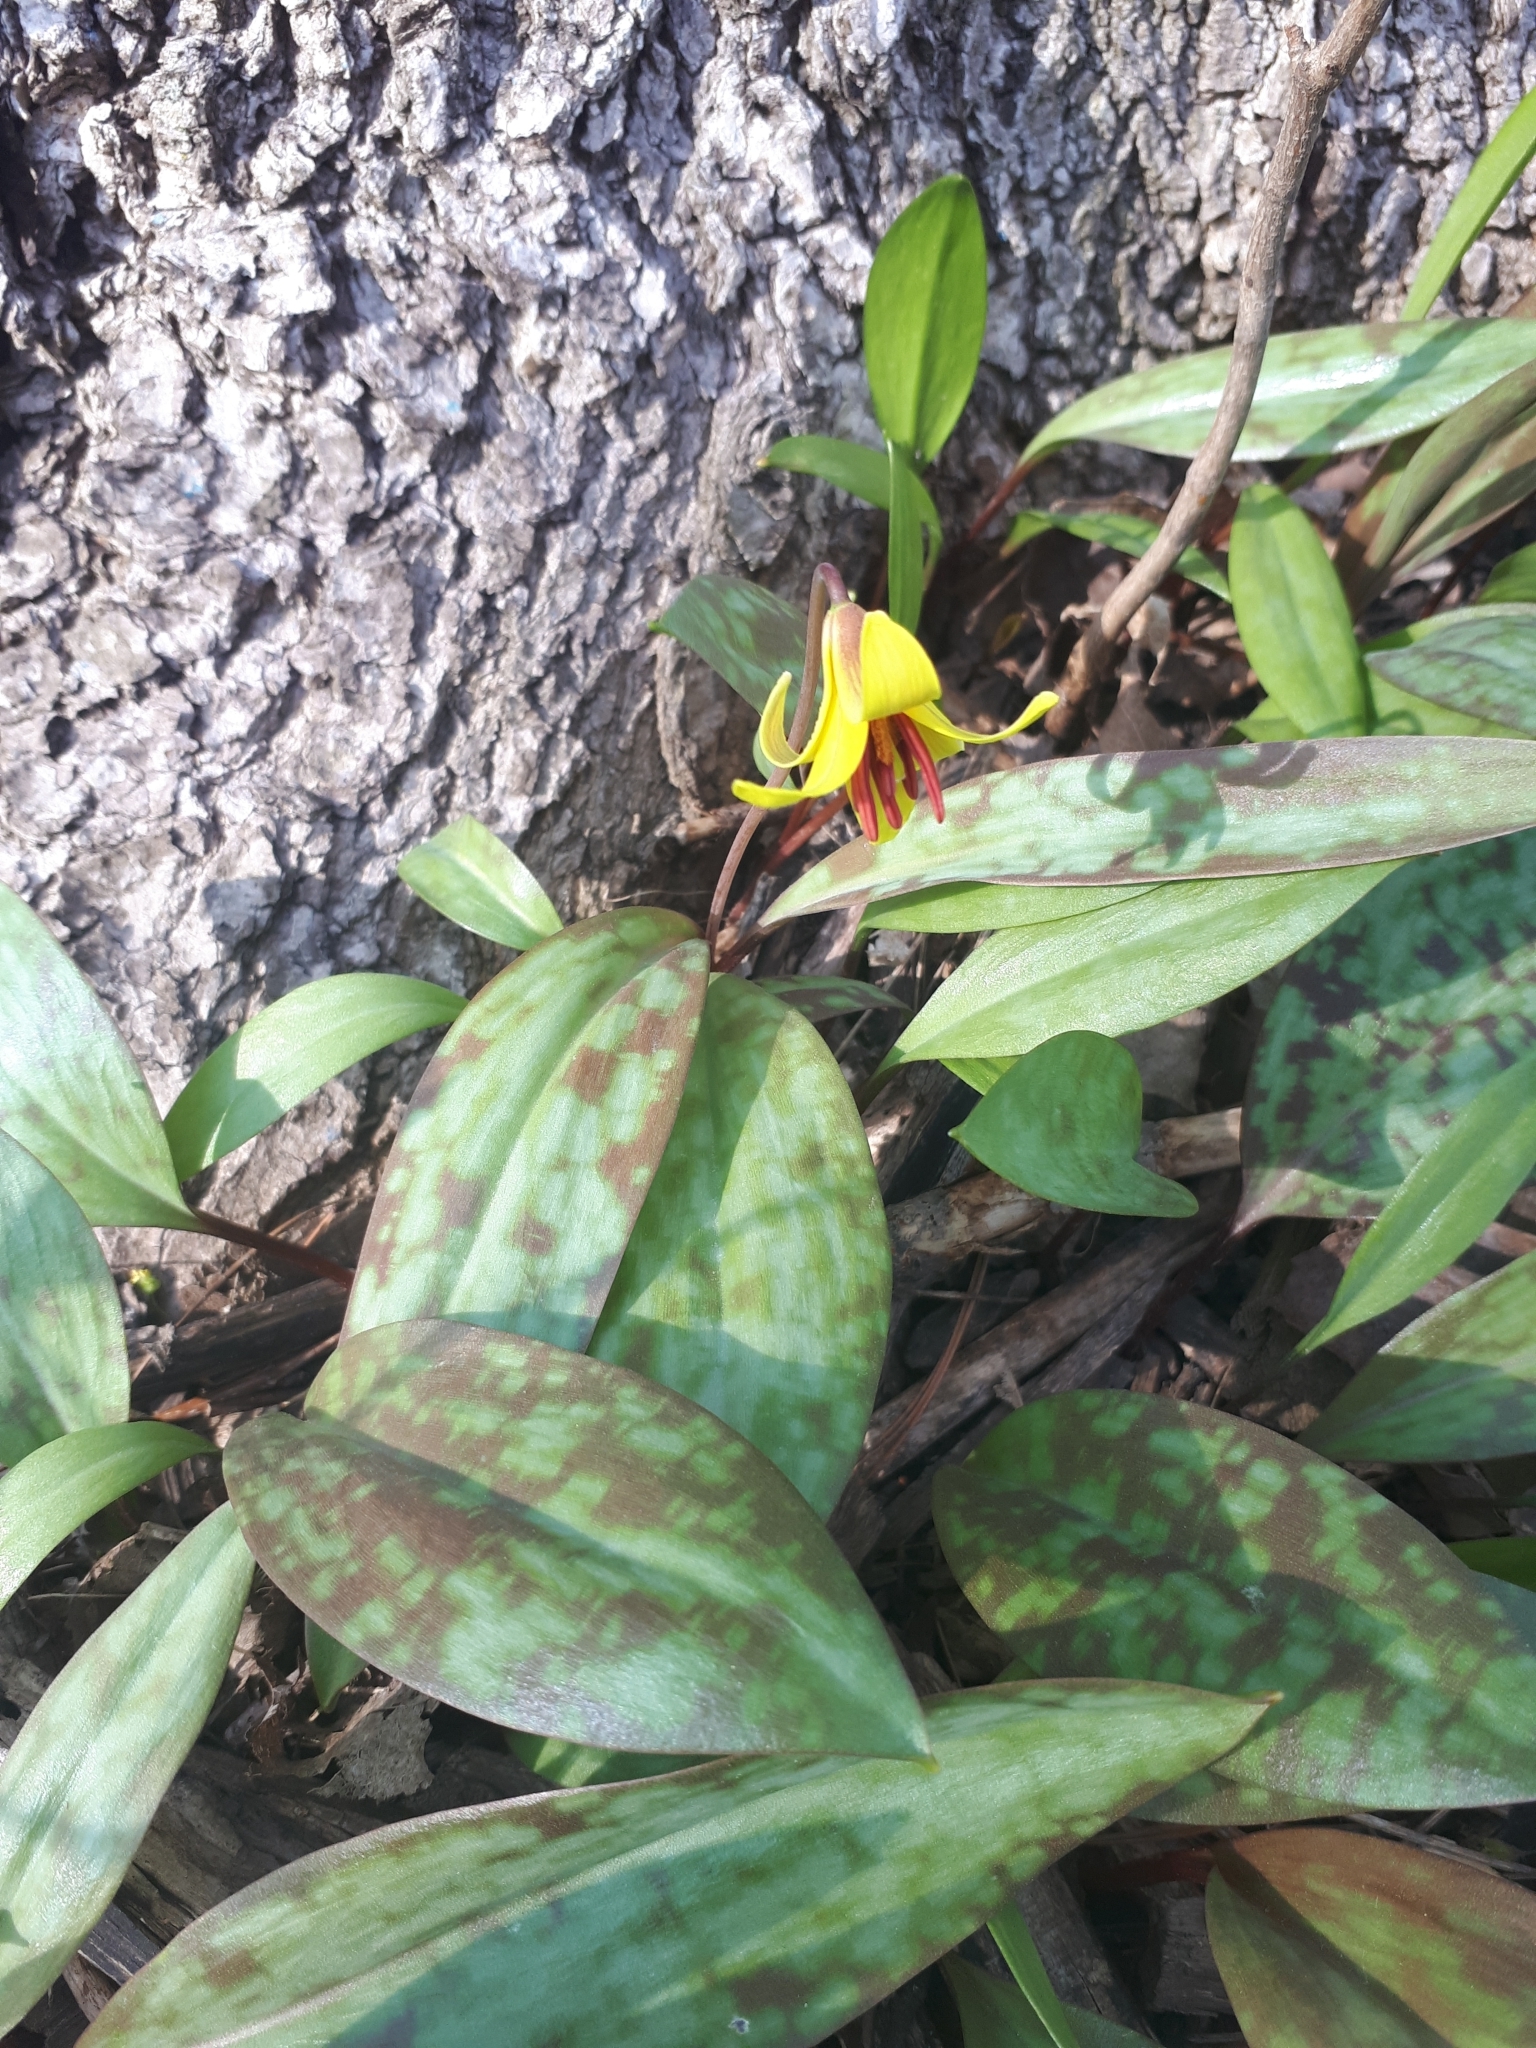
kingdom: Plantae
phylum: Tracheophyta
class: Liliopsida
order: Liliales
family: Liliaceae
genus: Erythronium
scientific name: Erythronium americanum
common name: Yellow adder's-tongue
